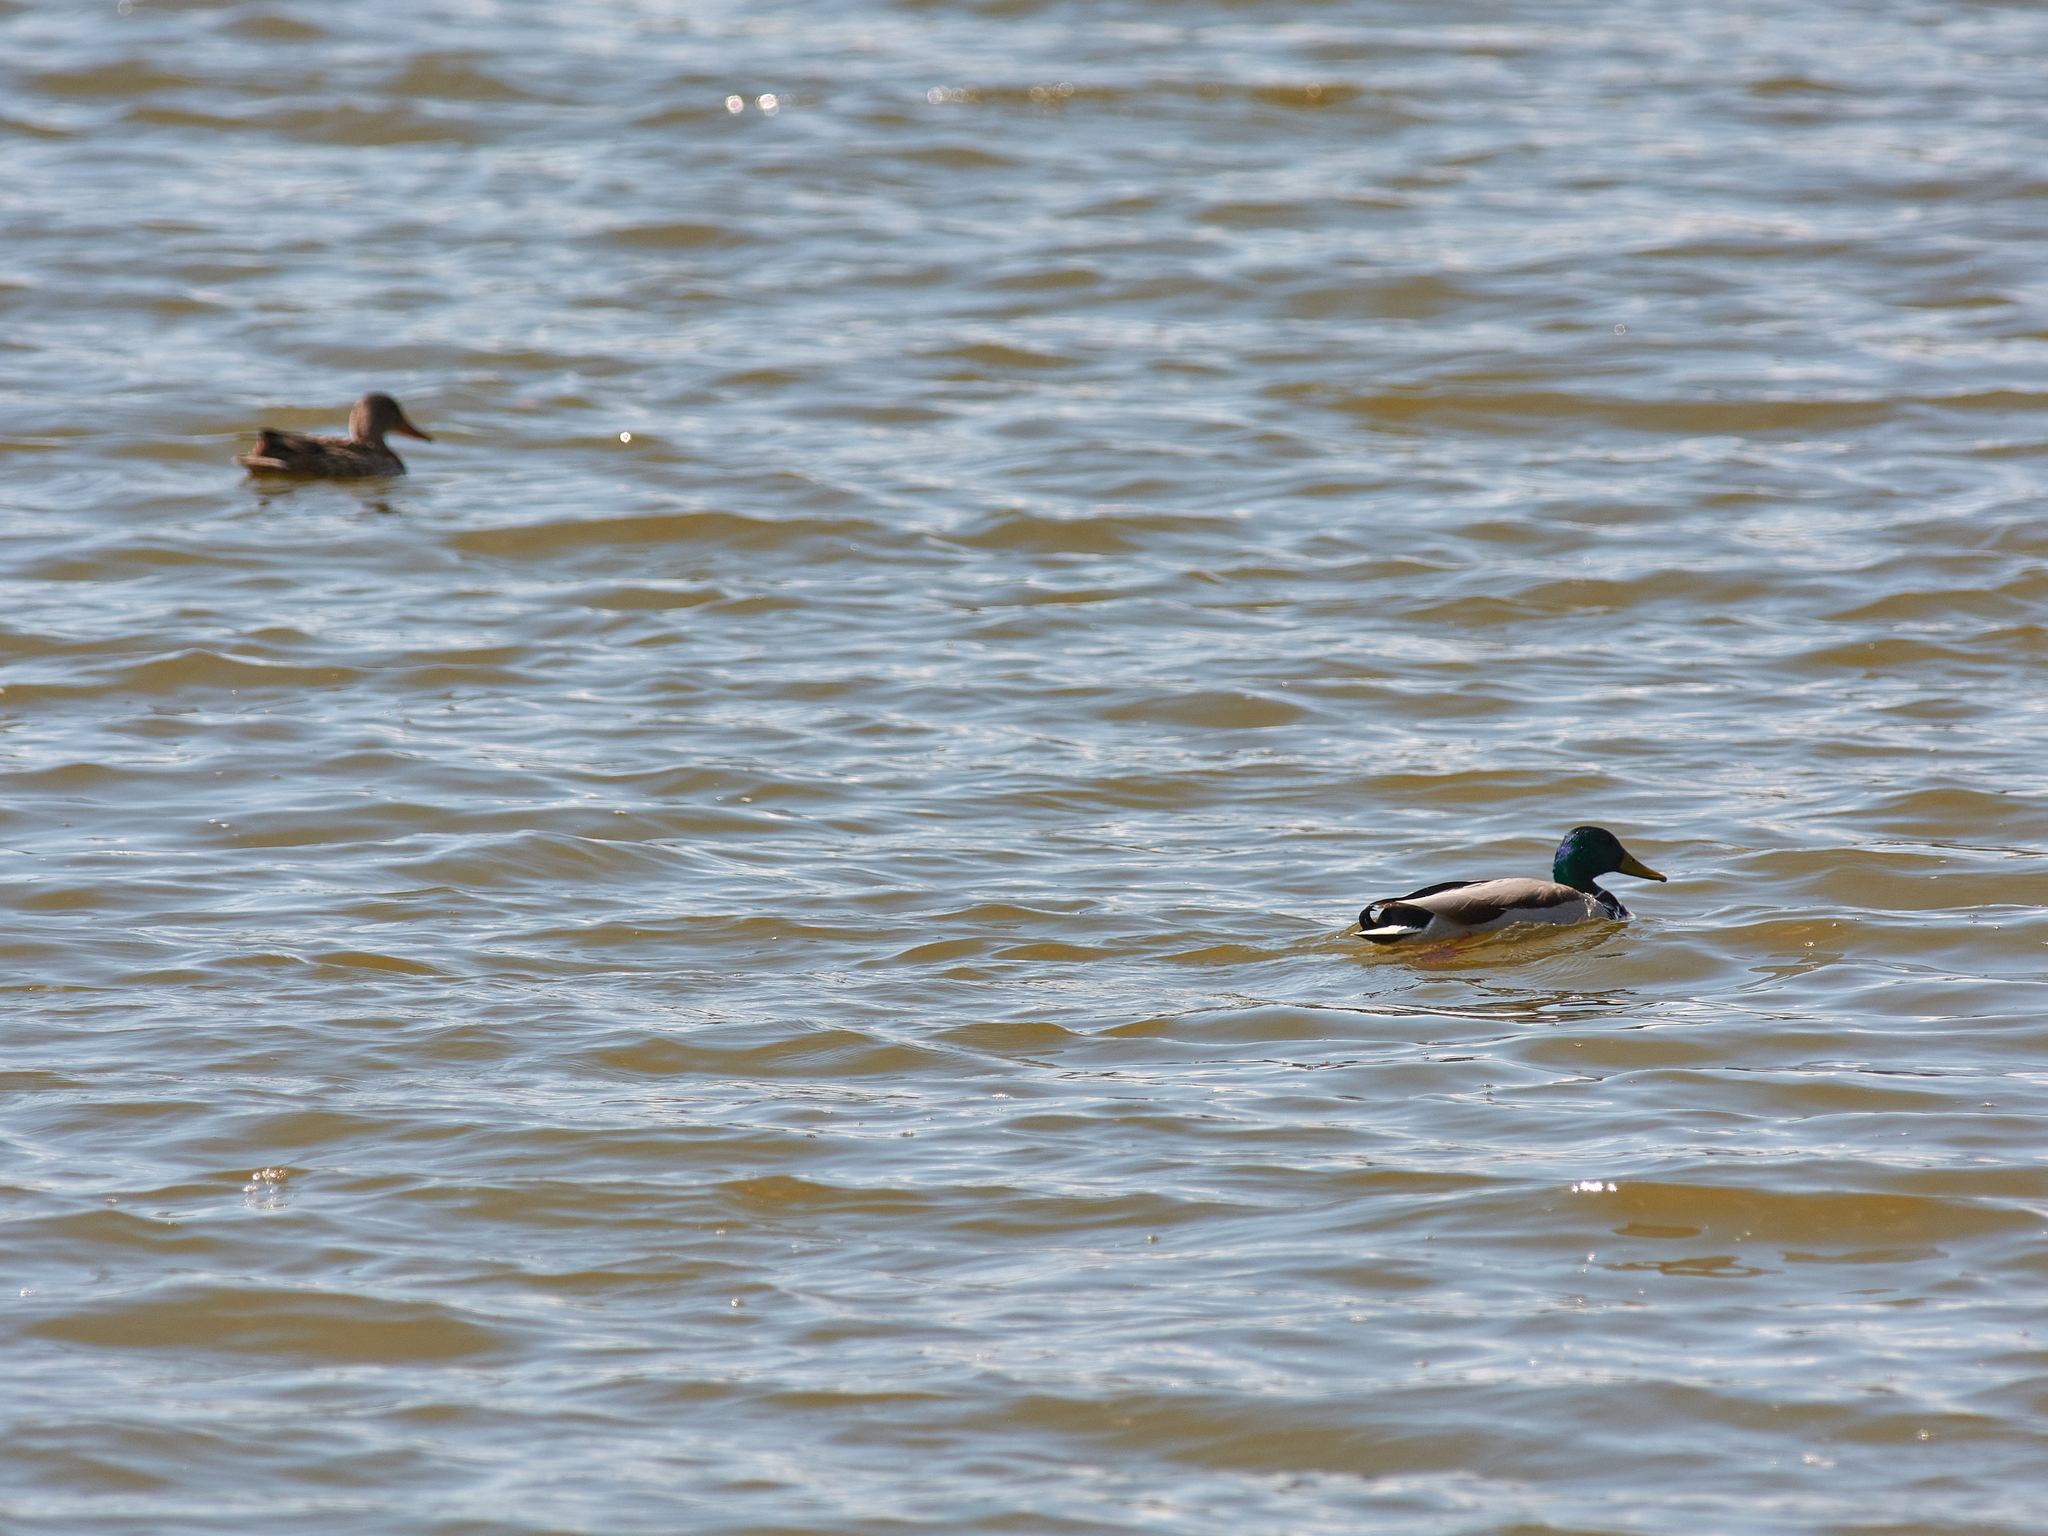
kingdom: Animalia
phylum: Chordata
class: Aves
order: Anseriformes
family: Anatidae
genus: Anas
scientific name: Anas platyrhynchos
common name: Mallard
